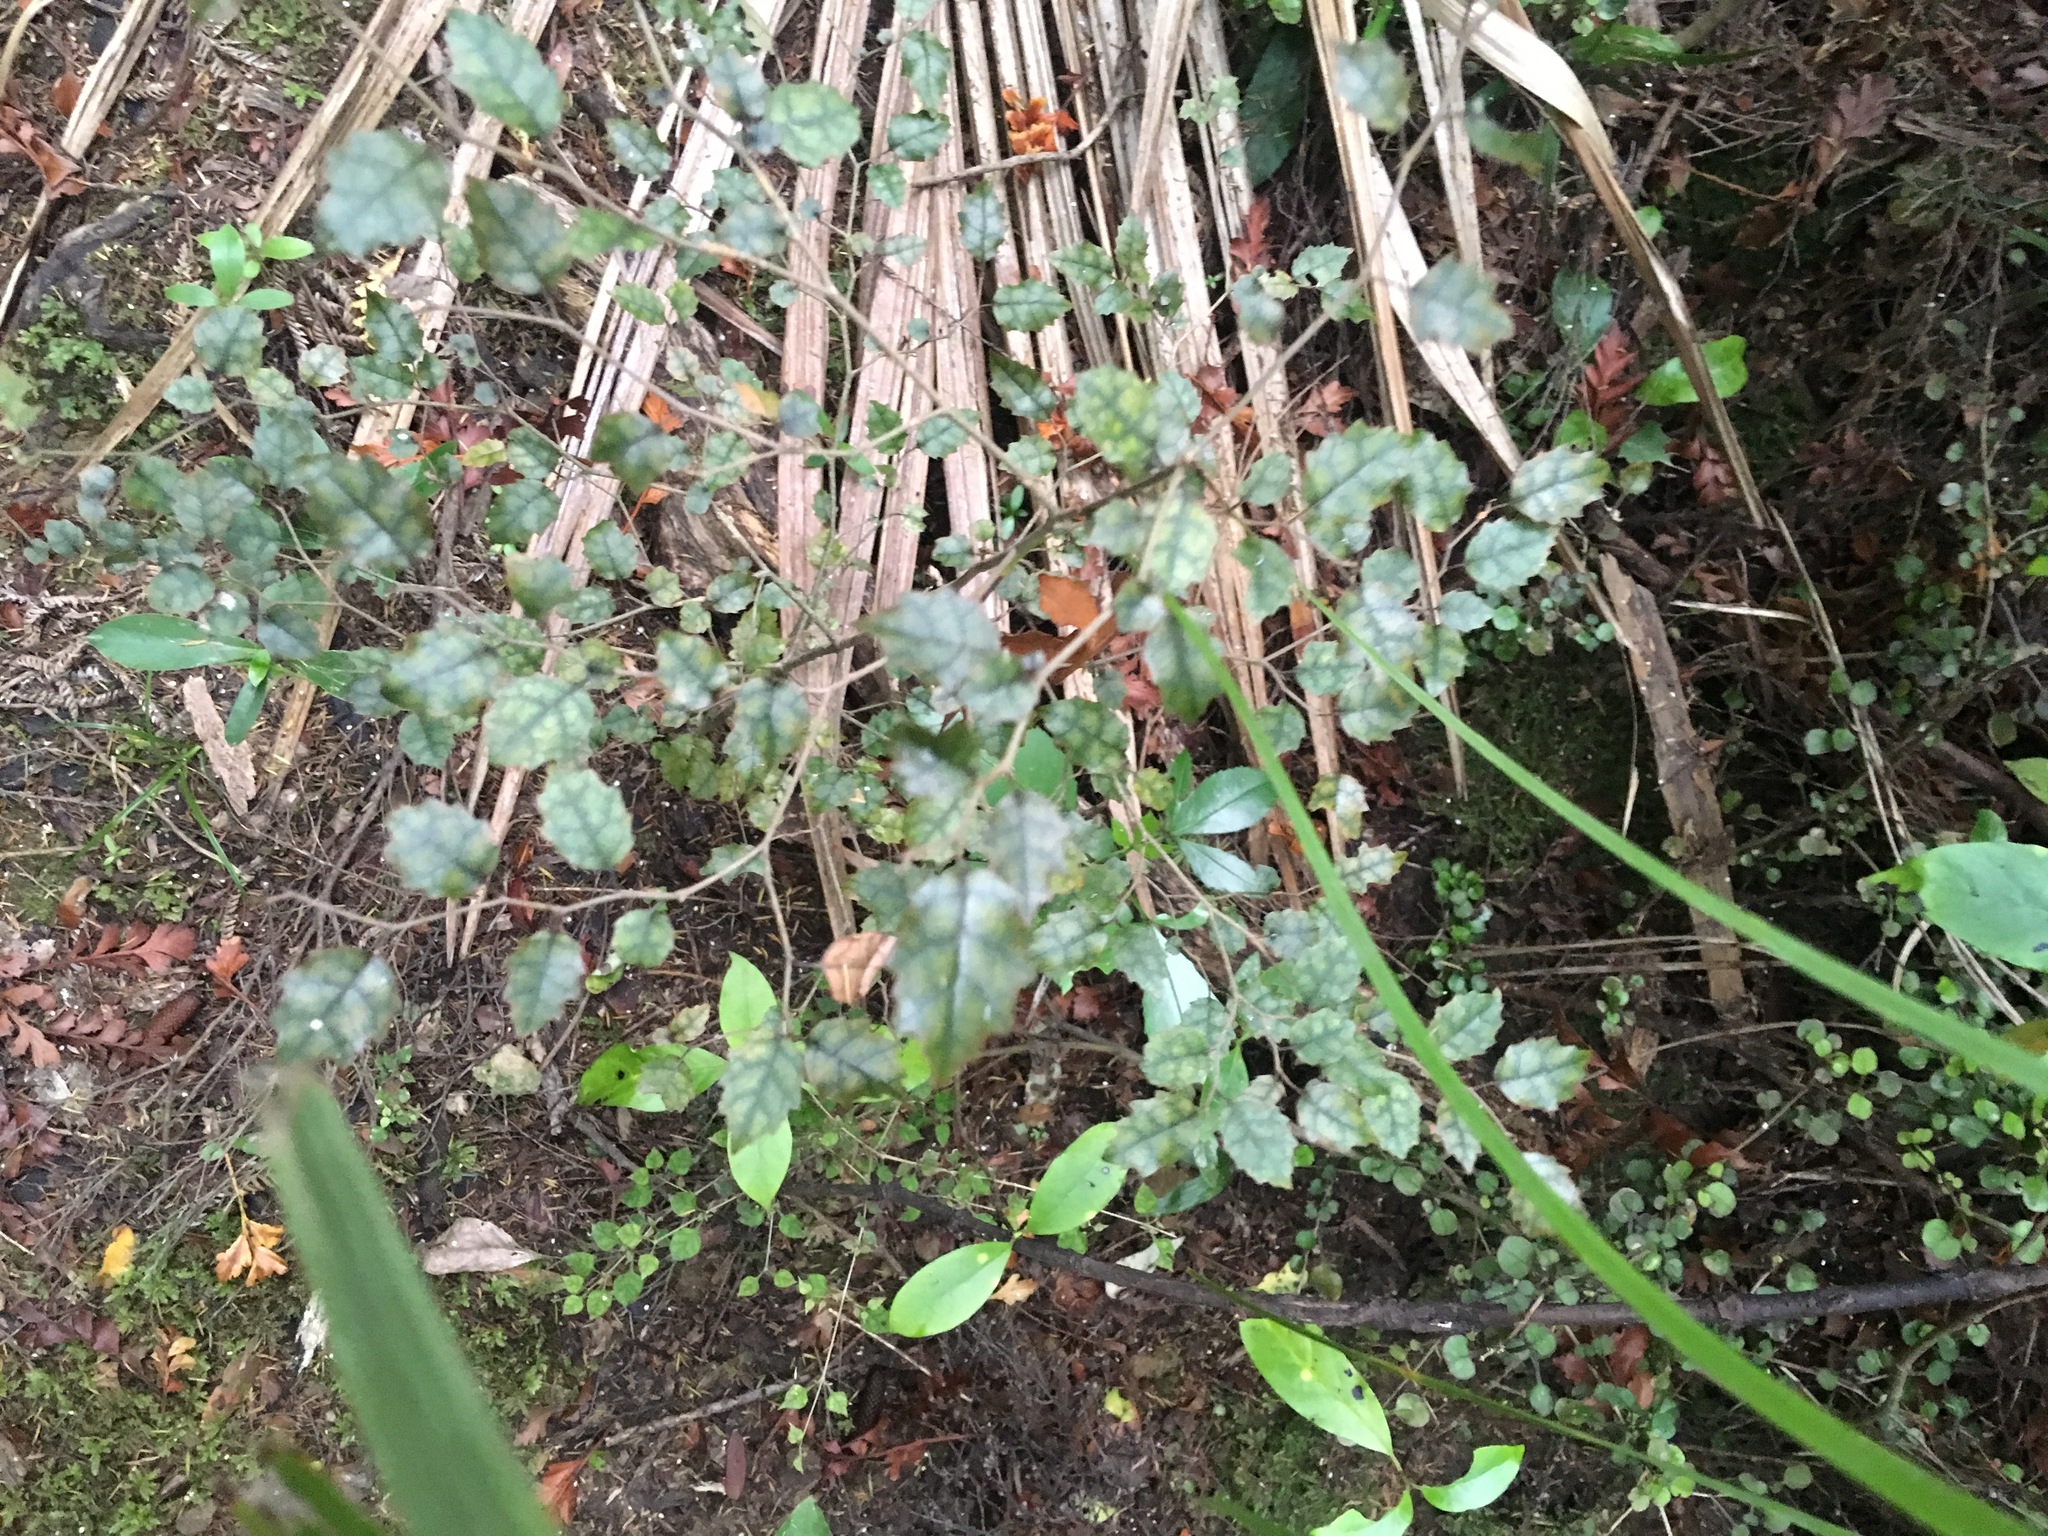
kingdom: Plantae
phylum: Tracheophyta
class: Magnoliopsida
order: Asterales
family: Rousseaceae
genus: Carpodetus
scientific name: Carpodetus serratus
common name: White mapau
